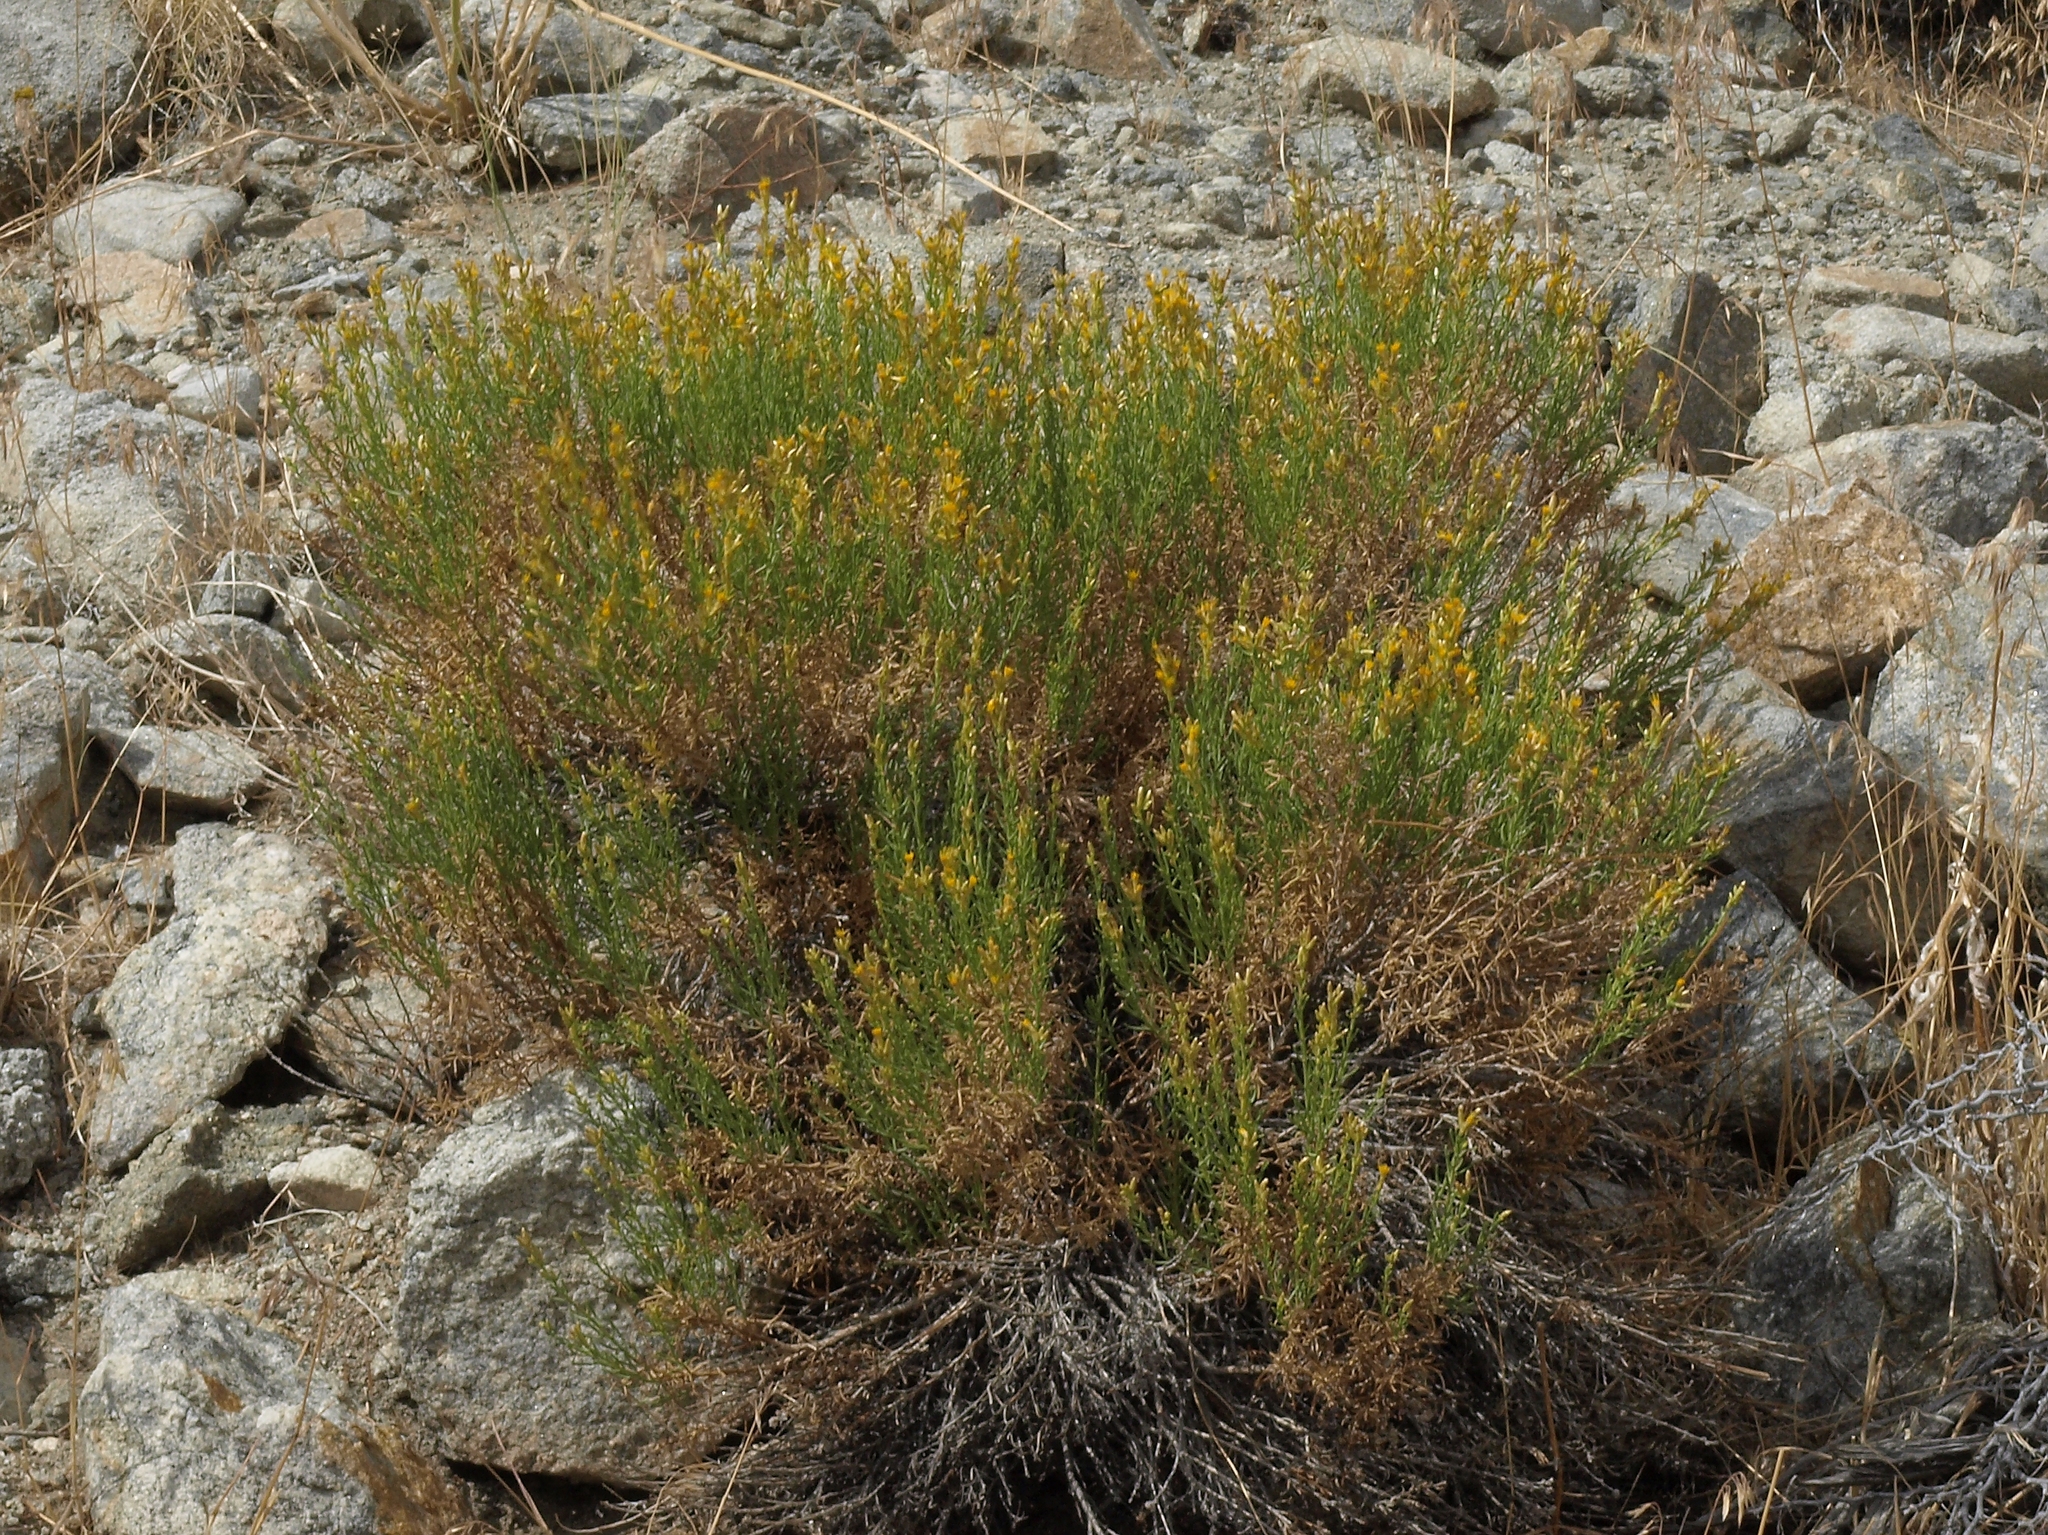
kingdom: Plantae
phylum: Tracheophyta
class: Magnoliopsida
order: Asterales
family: Asteraceae
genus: Ericameria
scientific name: Ericameria teretifolia
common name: Round-leaf rabbitbrush
